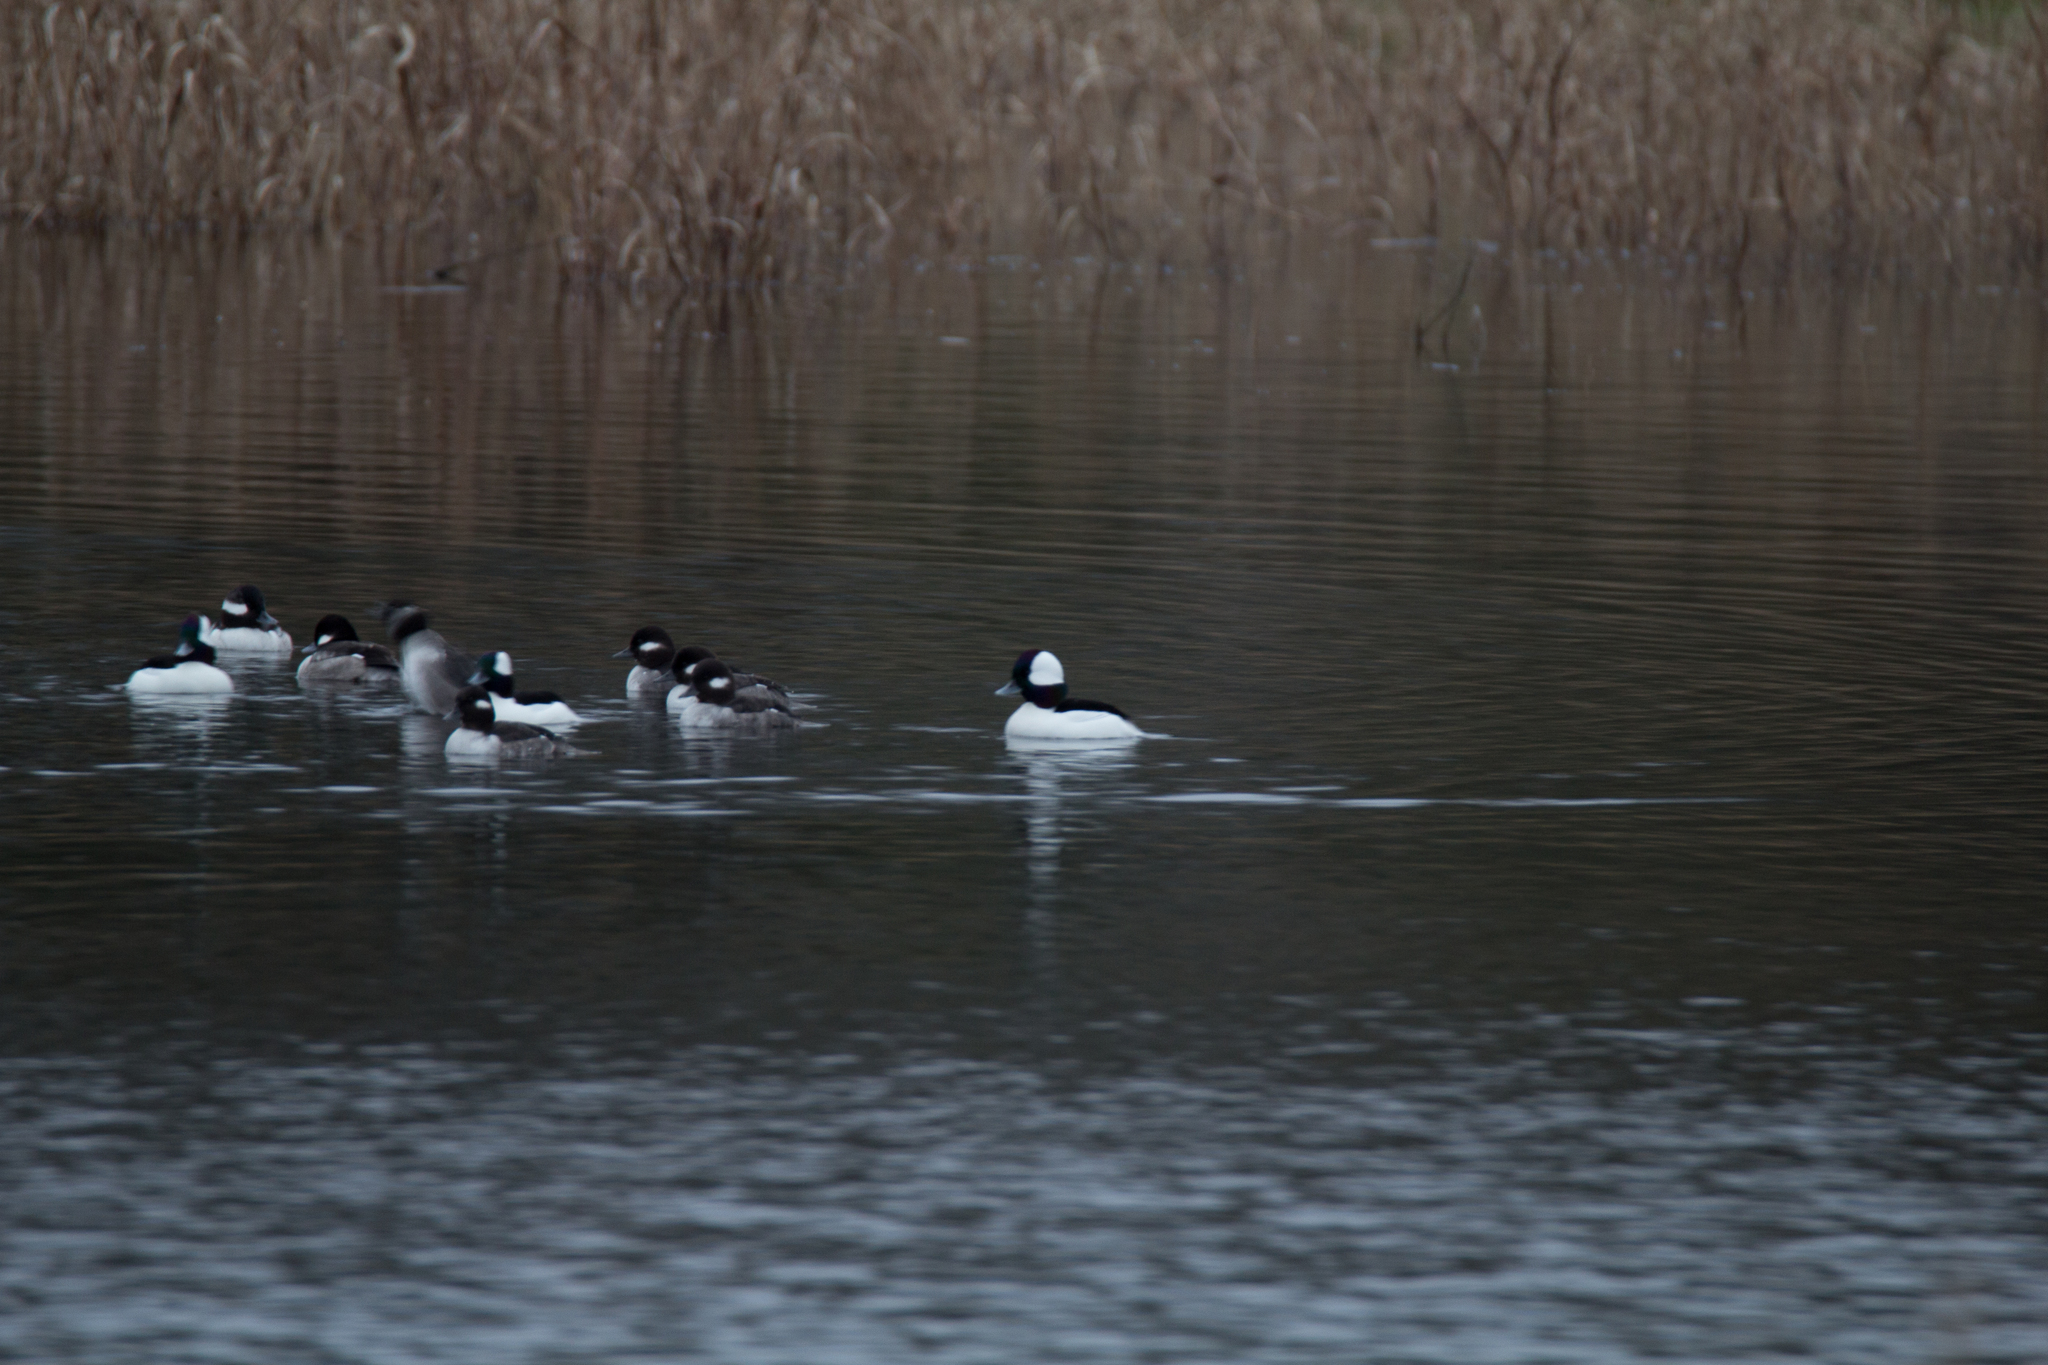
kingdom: Animalia
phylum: Chordata
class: Aves
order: Anseriformes
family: Anatidae
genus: Bucephala
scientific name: Bucephala albeola
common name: Bufflehead
